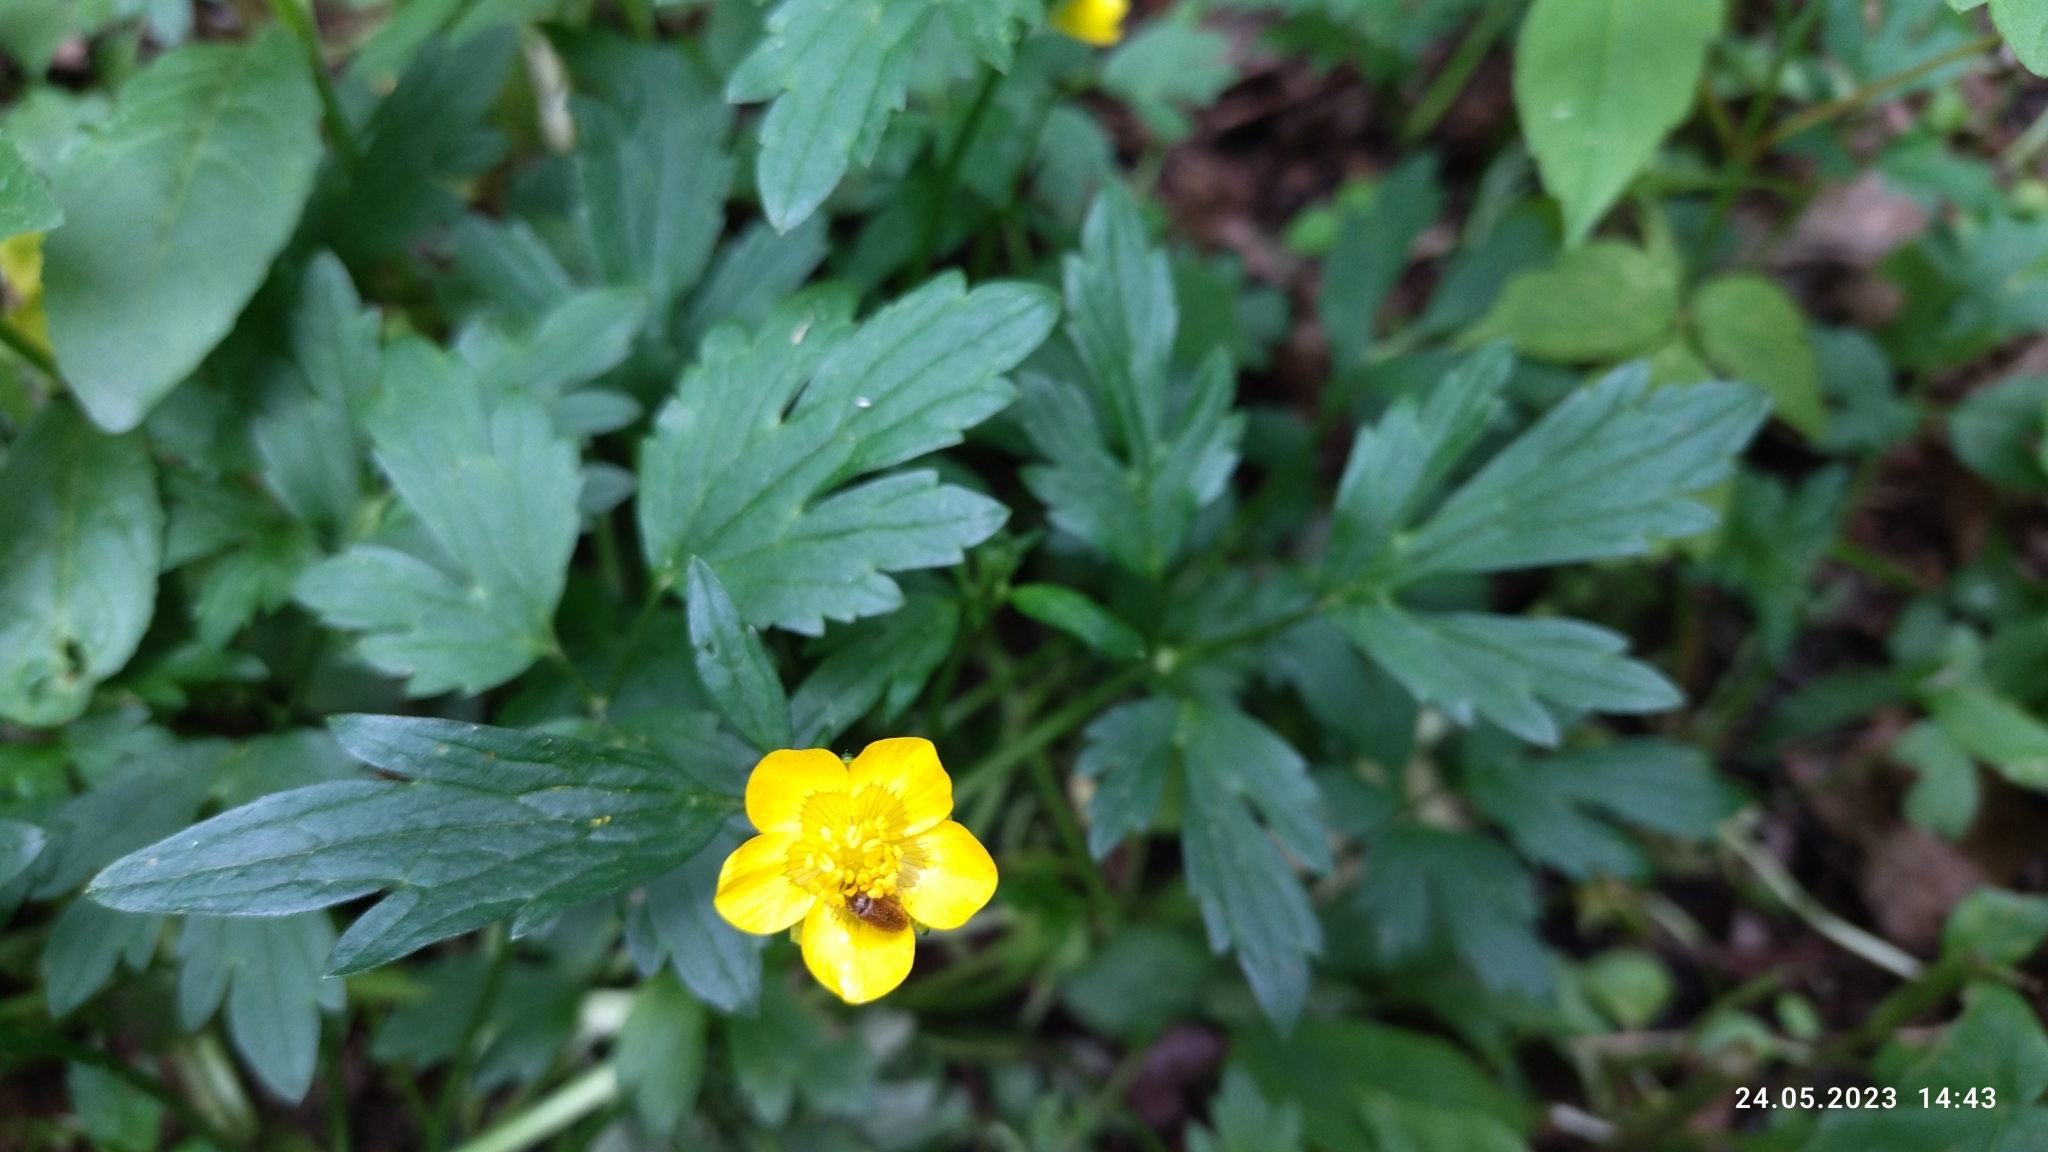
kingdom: Plantae
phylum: Tracheophyta
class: Magnoliopsida
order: Ranunculales
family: Ranunculaceae
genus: Ranunculus
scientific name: Ranunculus repens
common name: Creeping buttercup
